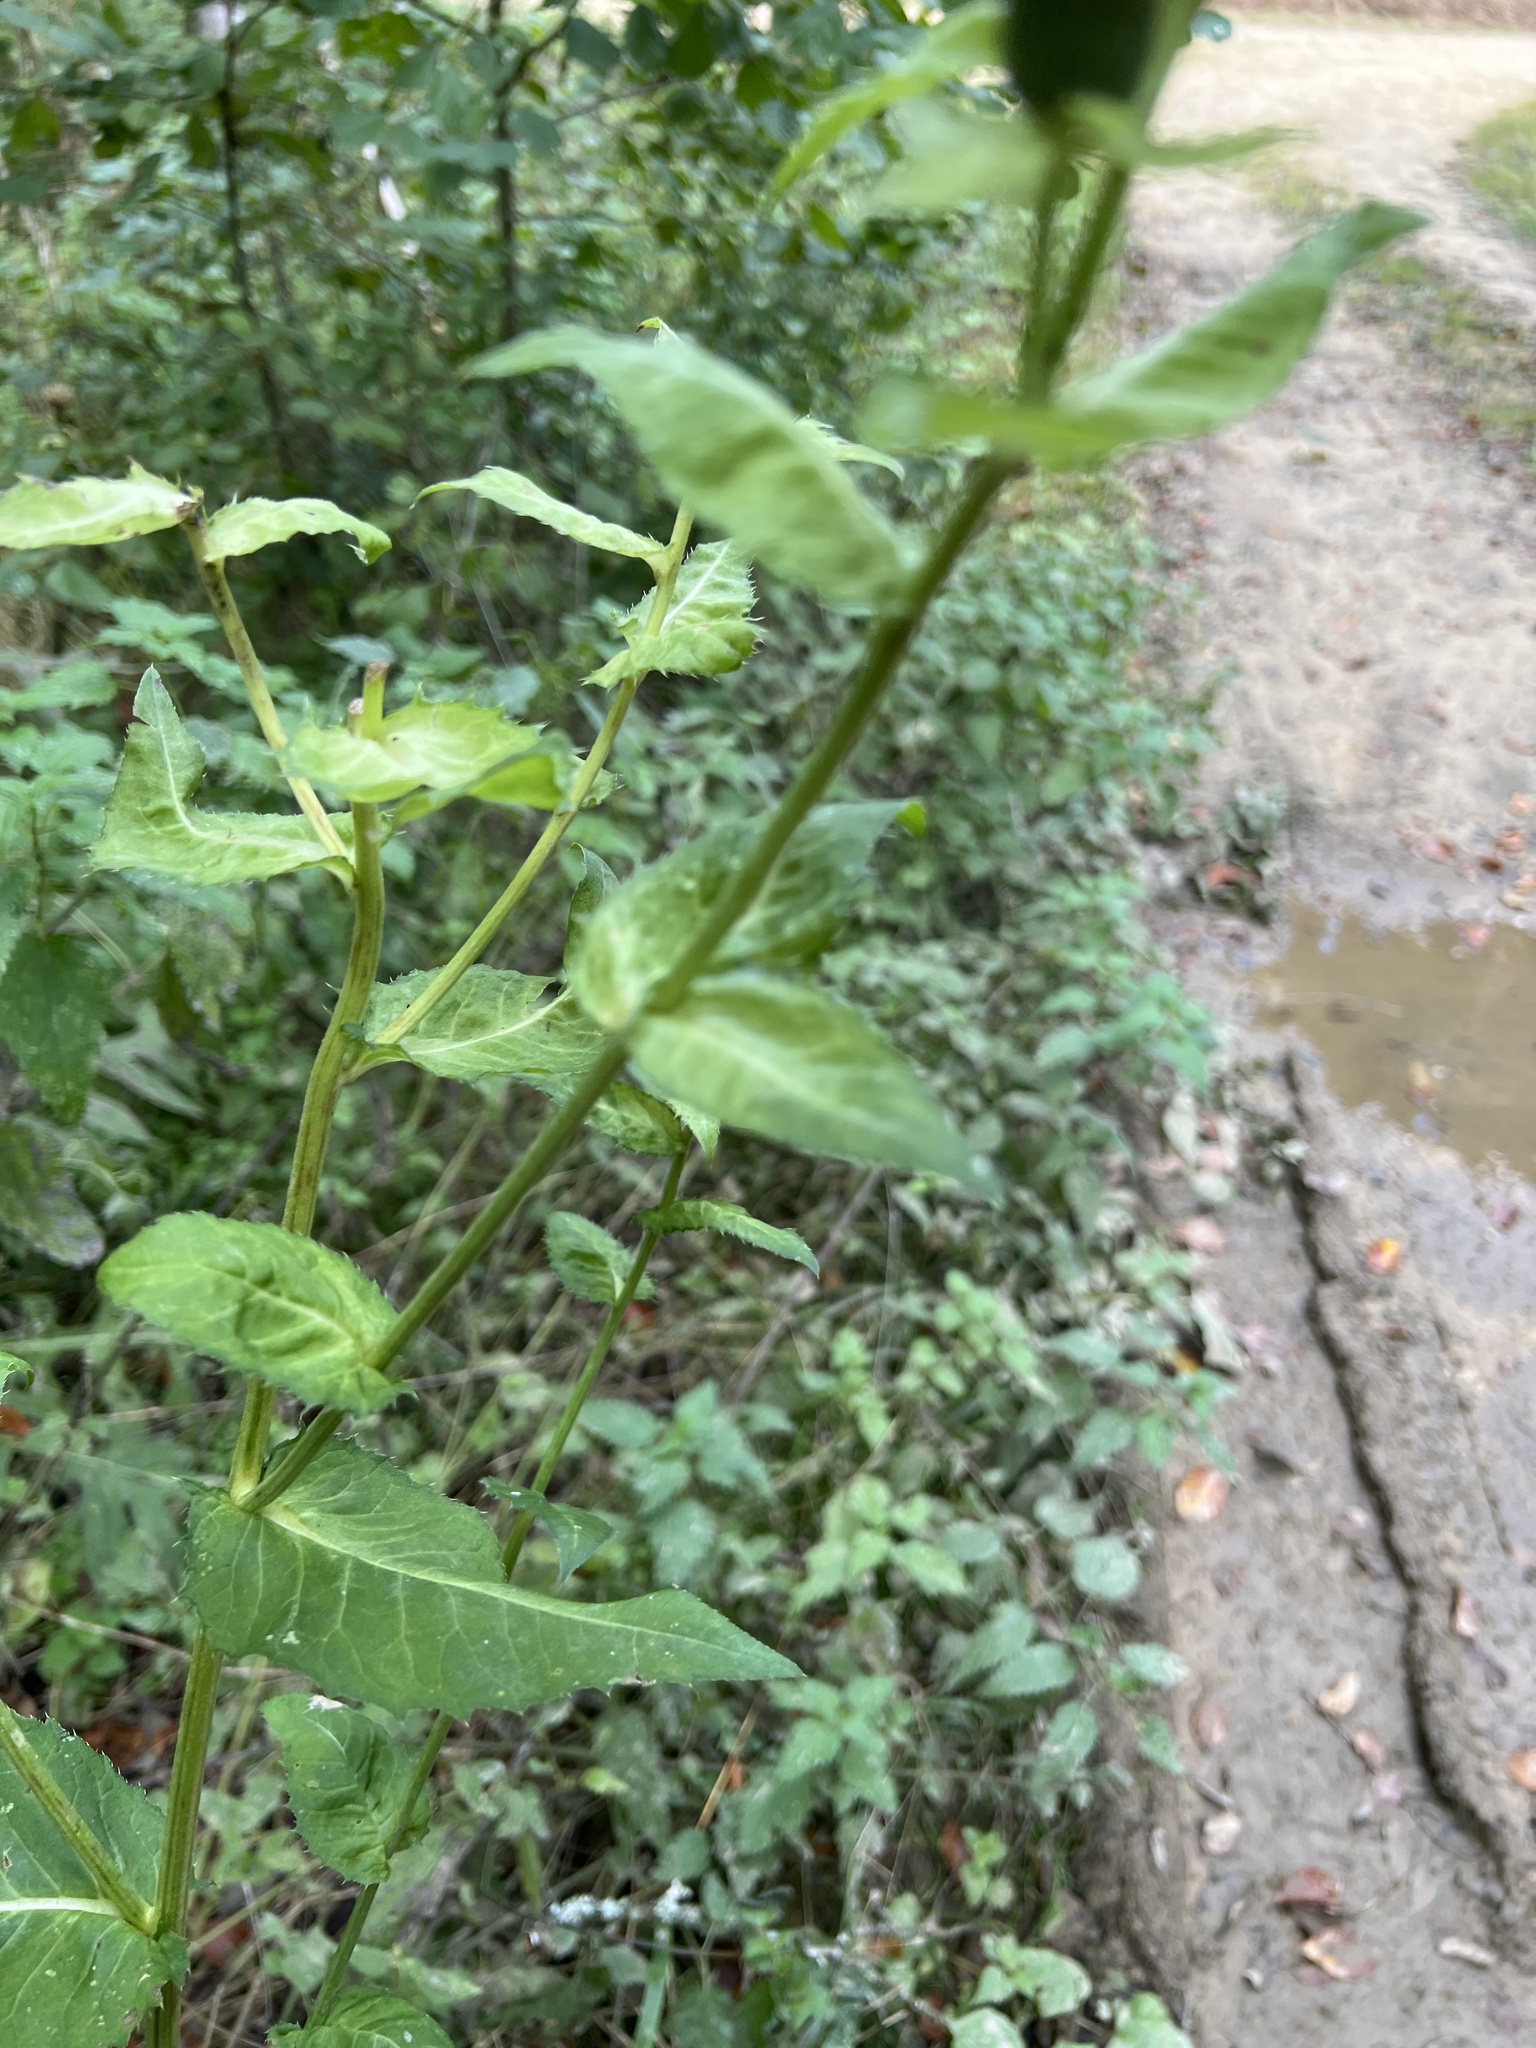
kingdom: Plantae
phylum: Tracheophyta
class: Magnoliopsida
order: Asterales
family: Asteraceae
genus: Cirsium
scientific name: Cirsium oleraceum
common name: Cabbage thistle
